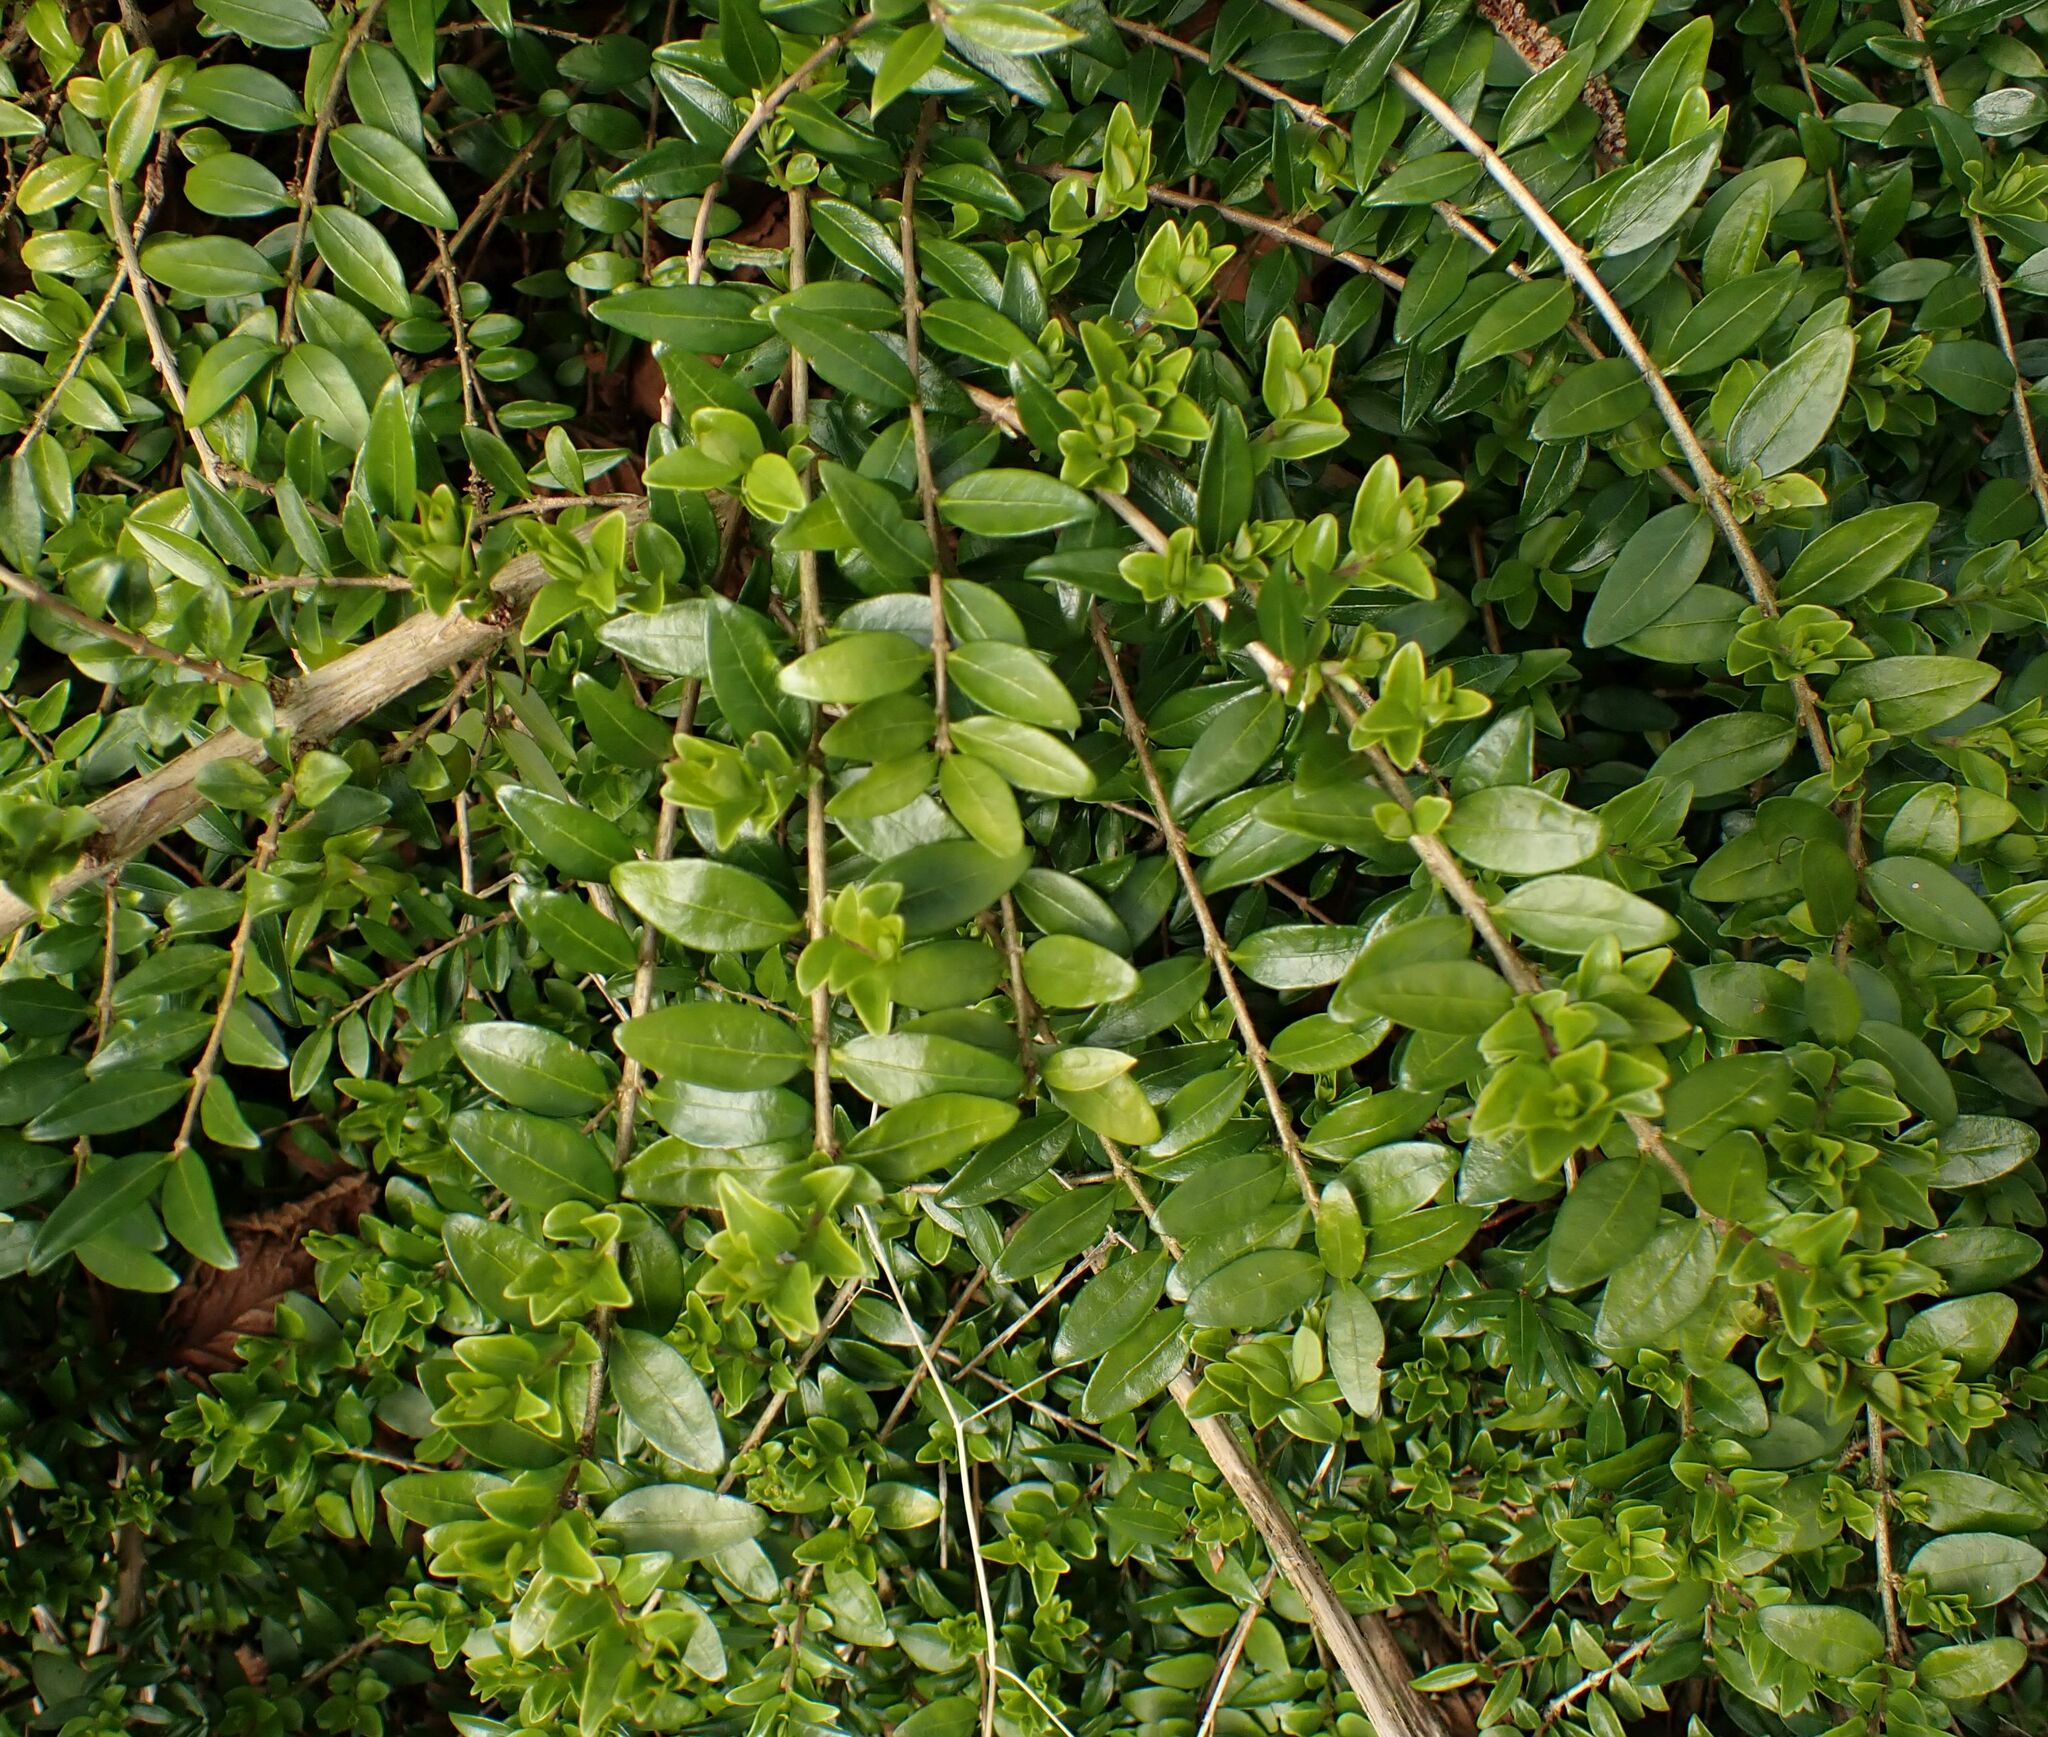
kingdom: Plantae
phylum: Tracheophyta
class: Magnoliopsida
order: Dipsacales
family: Caprifoliaceae
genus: Lonicera
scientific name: Lonicera ligustrina
